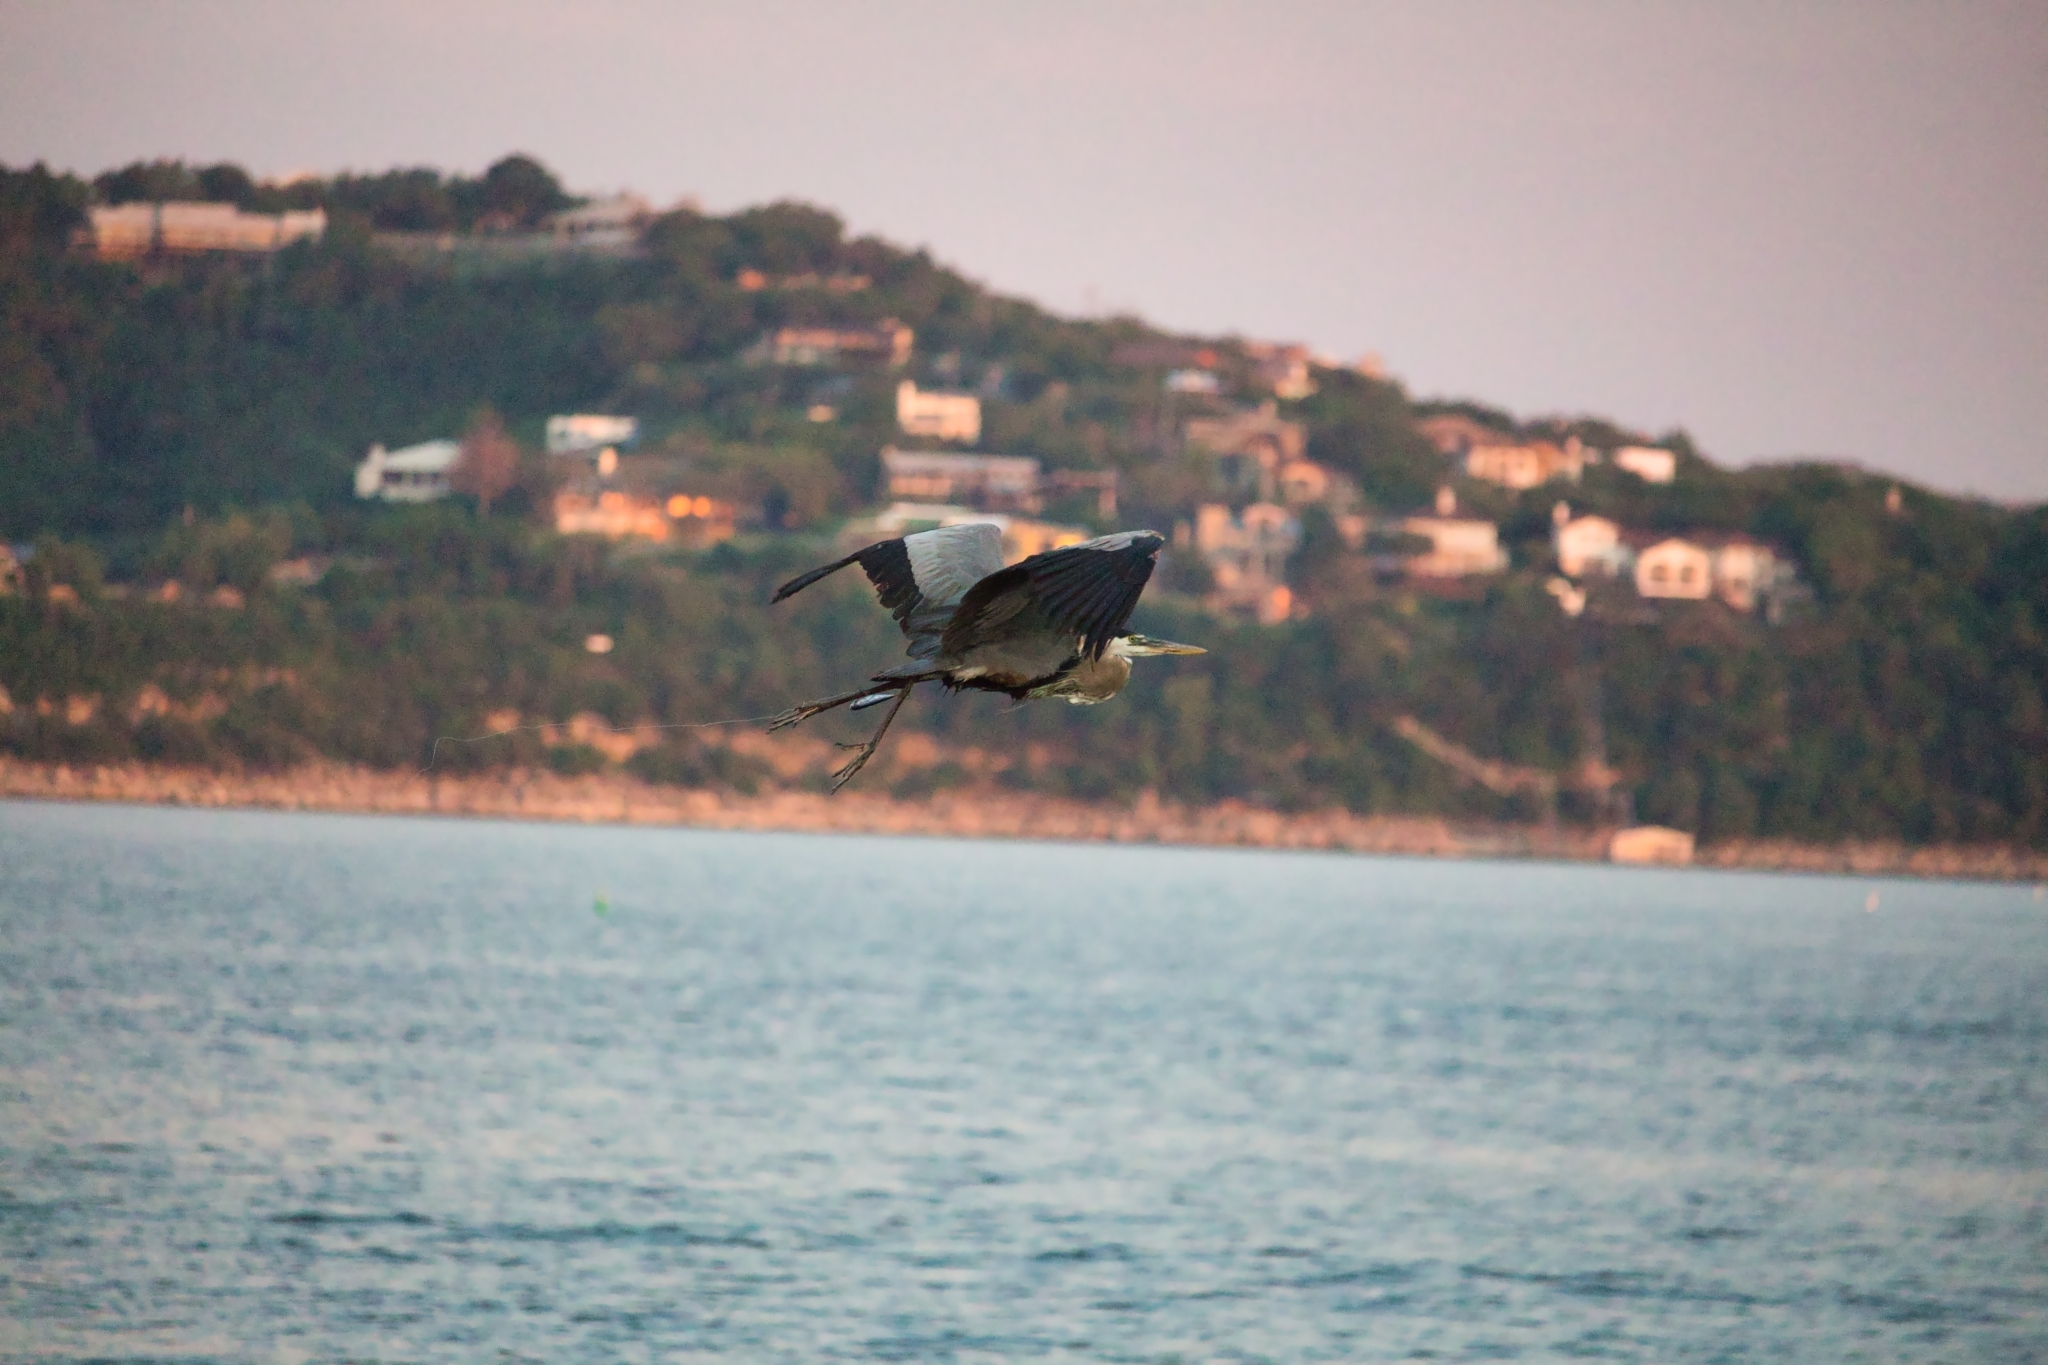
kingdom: Animalia
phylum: Chordata
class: Aves
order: Pelecaniformes
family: Ardeidae
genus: Ardea
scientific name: Ardea herodias
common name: Great blue heron
